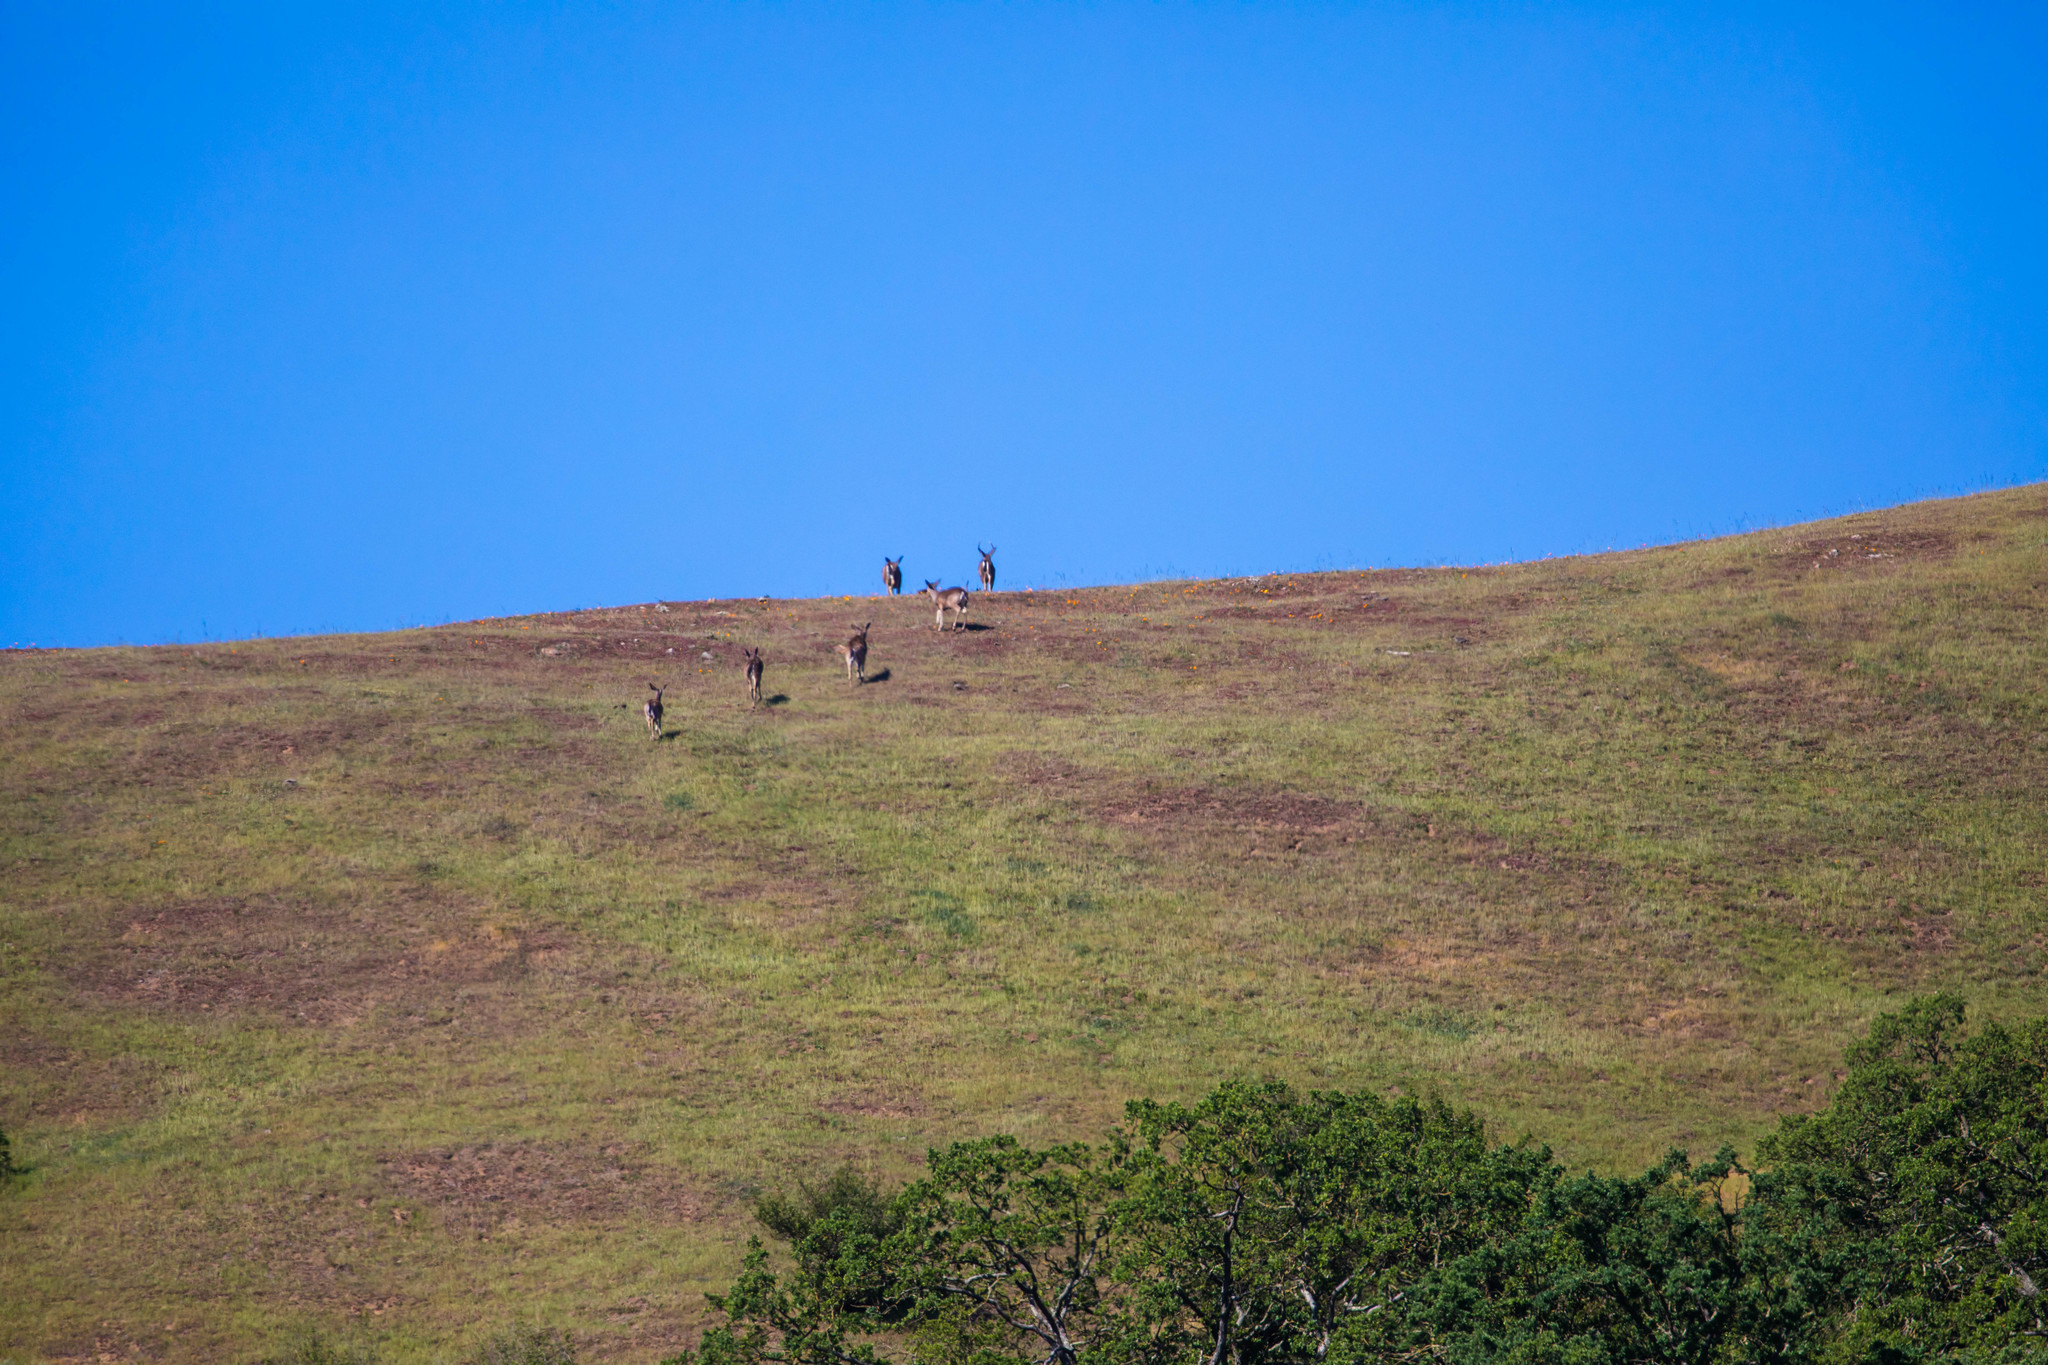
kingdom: Animalia
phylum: Chordata
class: Mammalia
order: Artiodactyla
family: Cervidae
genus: Odocoileus
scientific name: Odocoileus hemionus
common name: Mule deer
